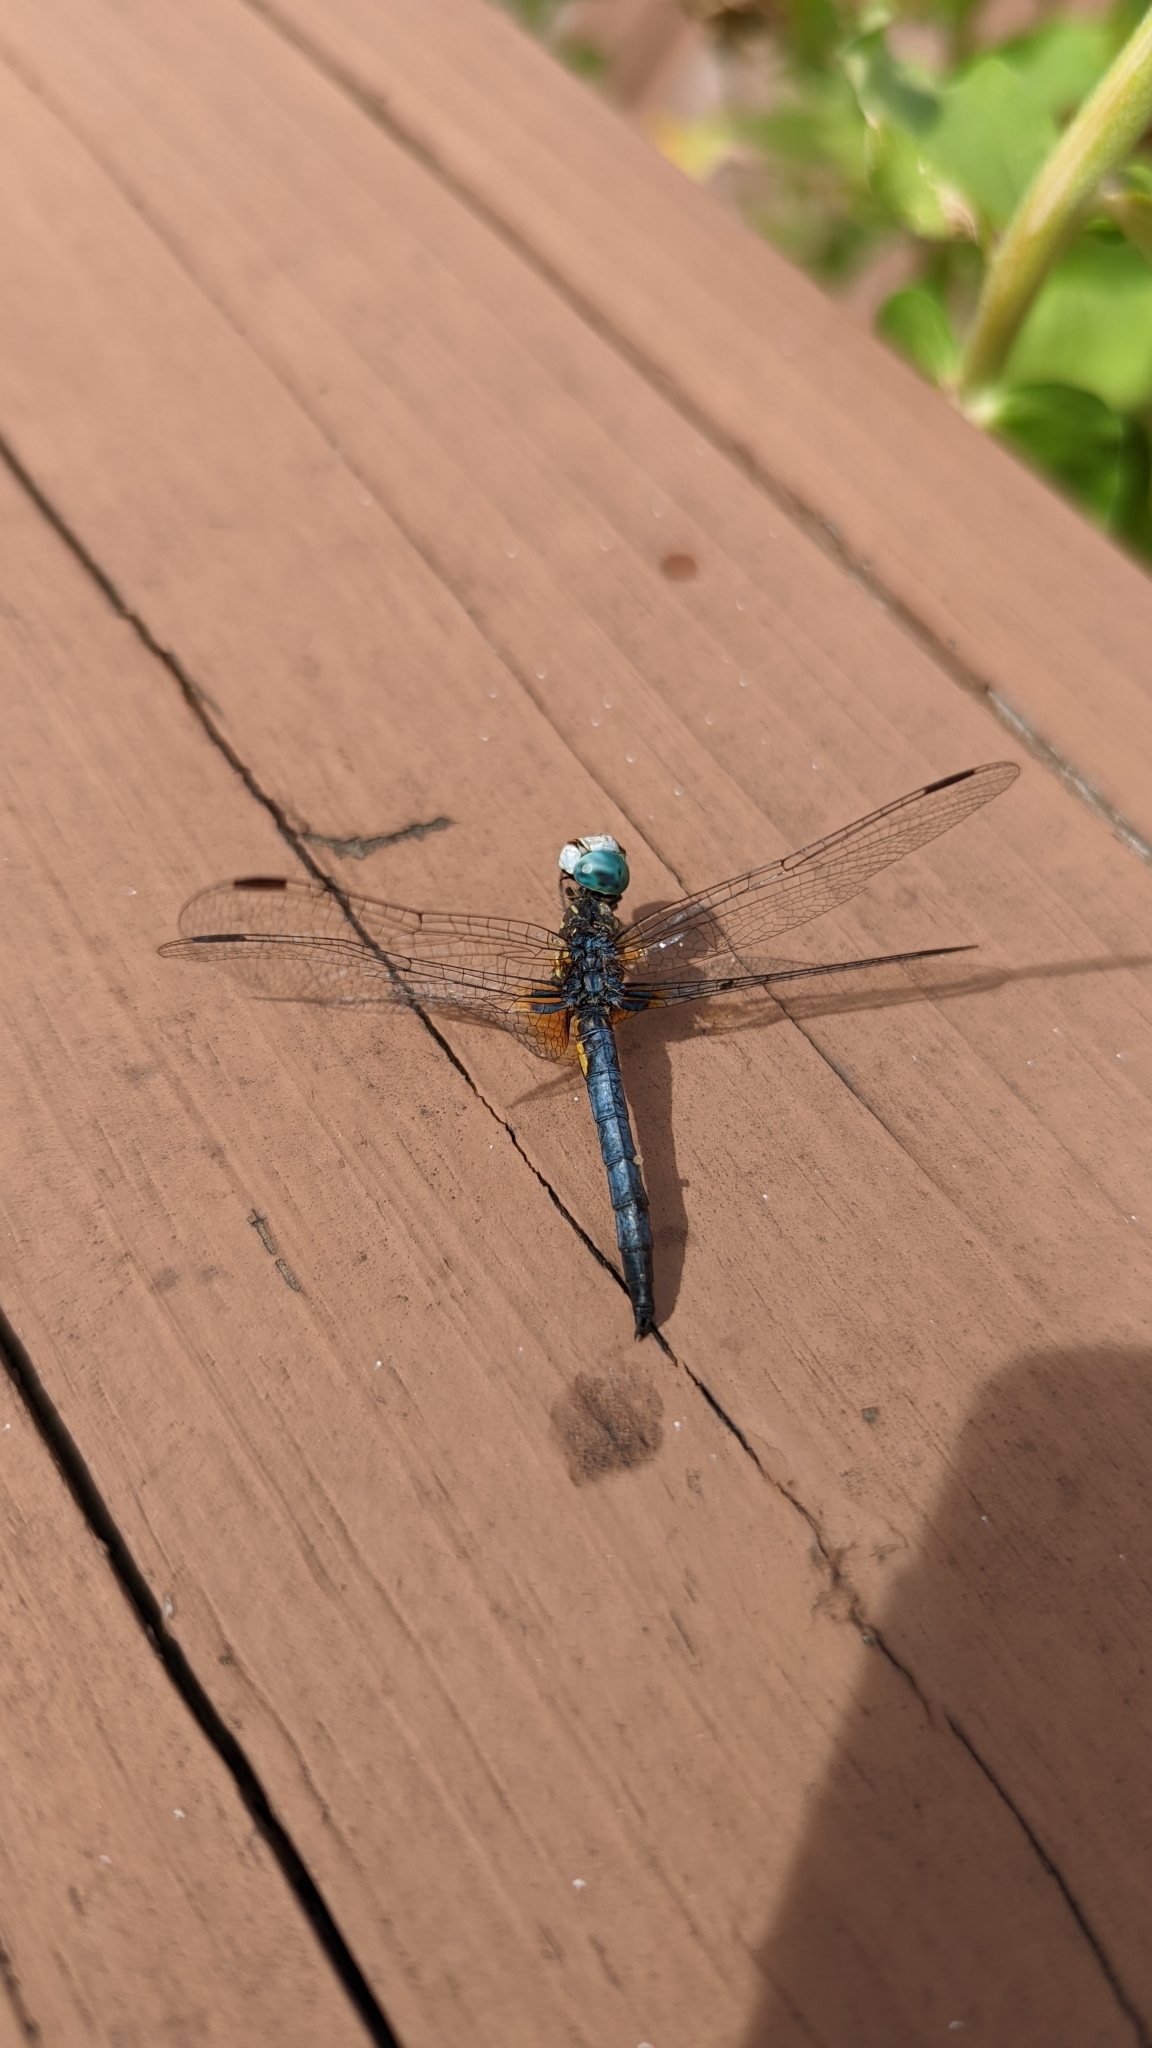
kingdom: Animalia
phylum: Arthropoda
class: Insecta
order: Odonata
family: Libellulidae
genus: Pachydiplax
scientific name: Pachydiplax longipennis
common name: Blue dasher
